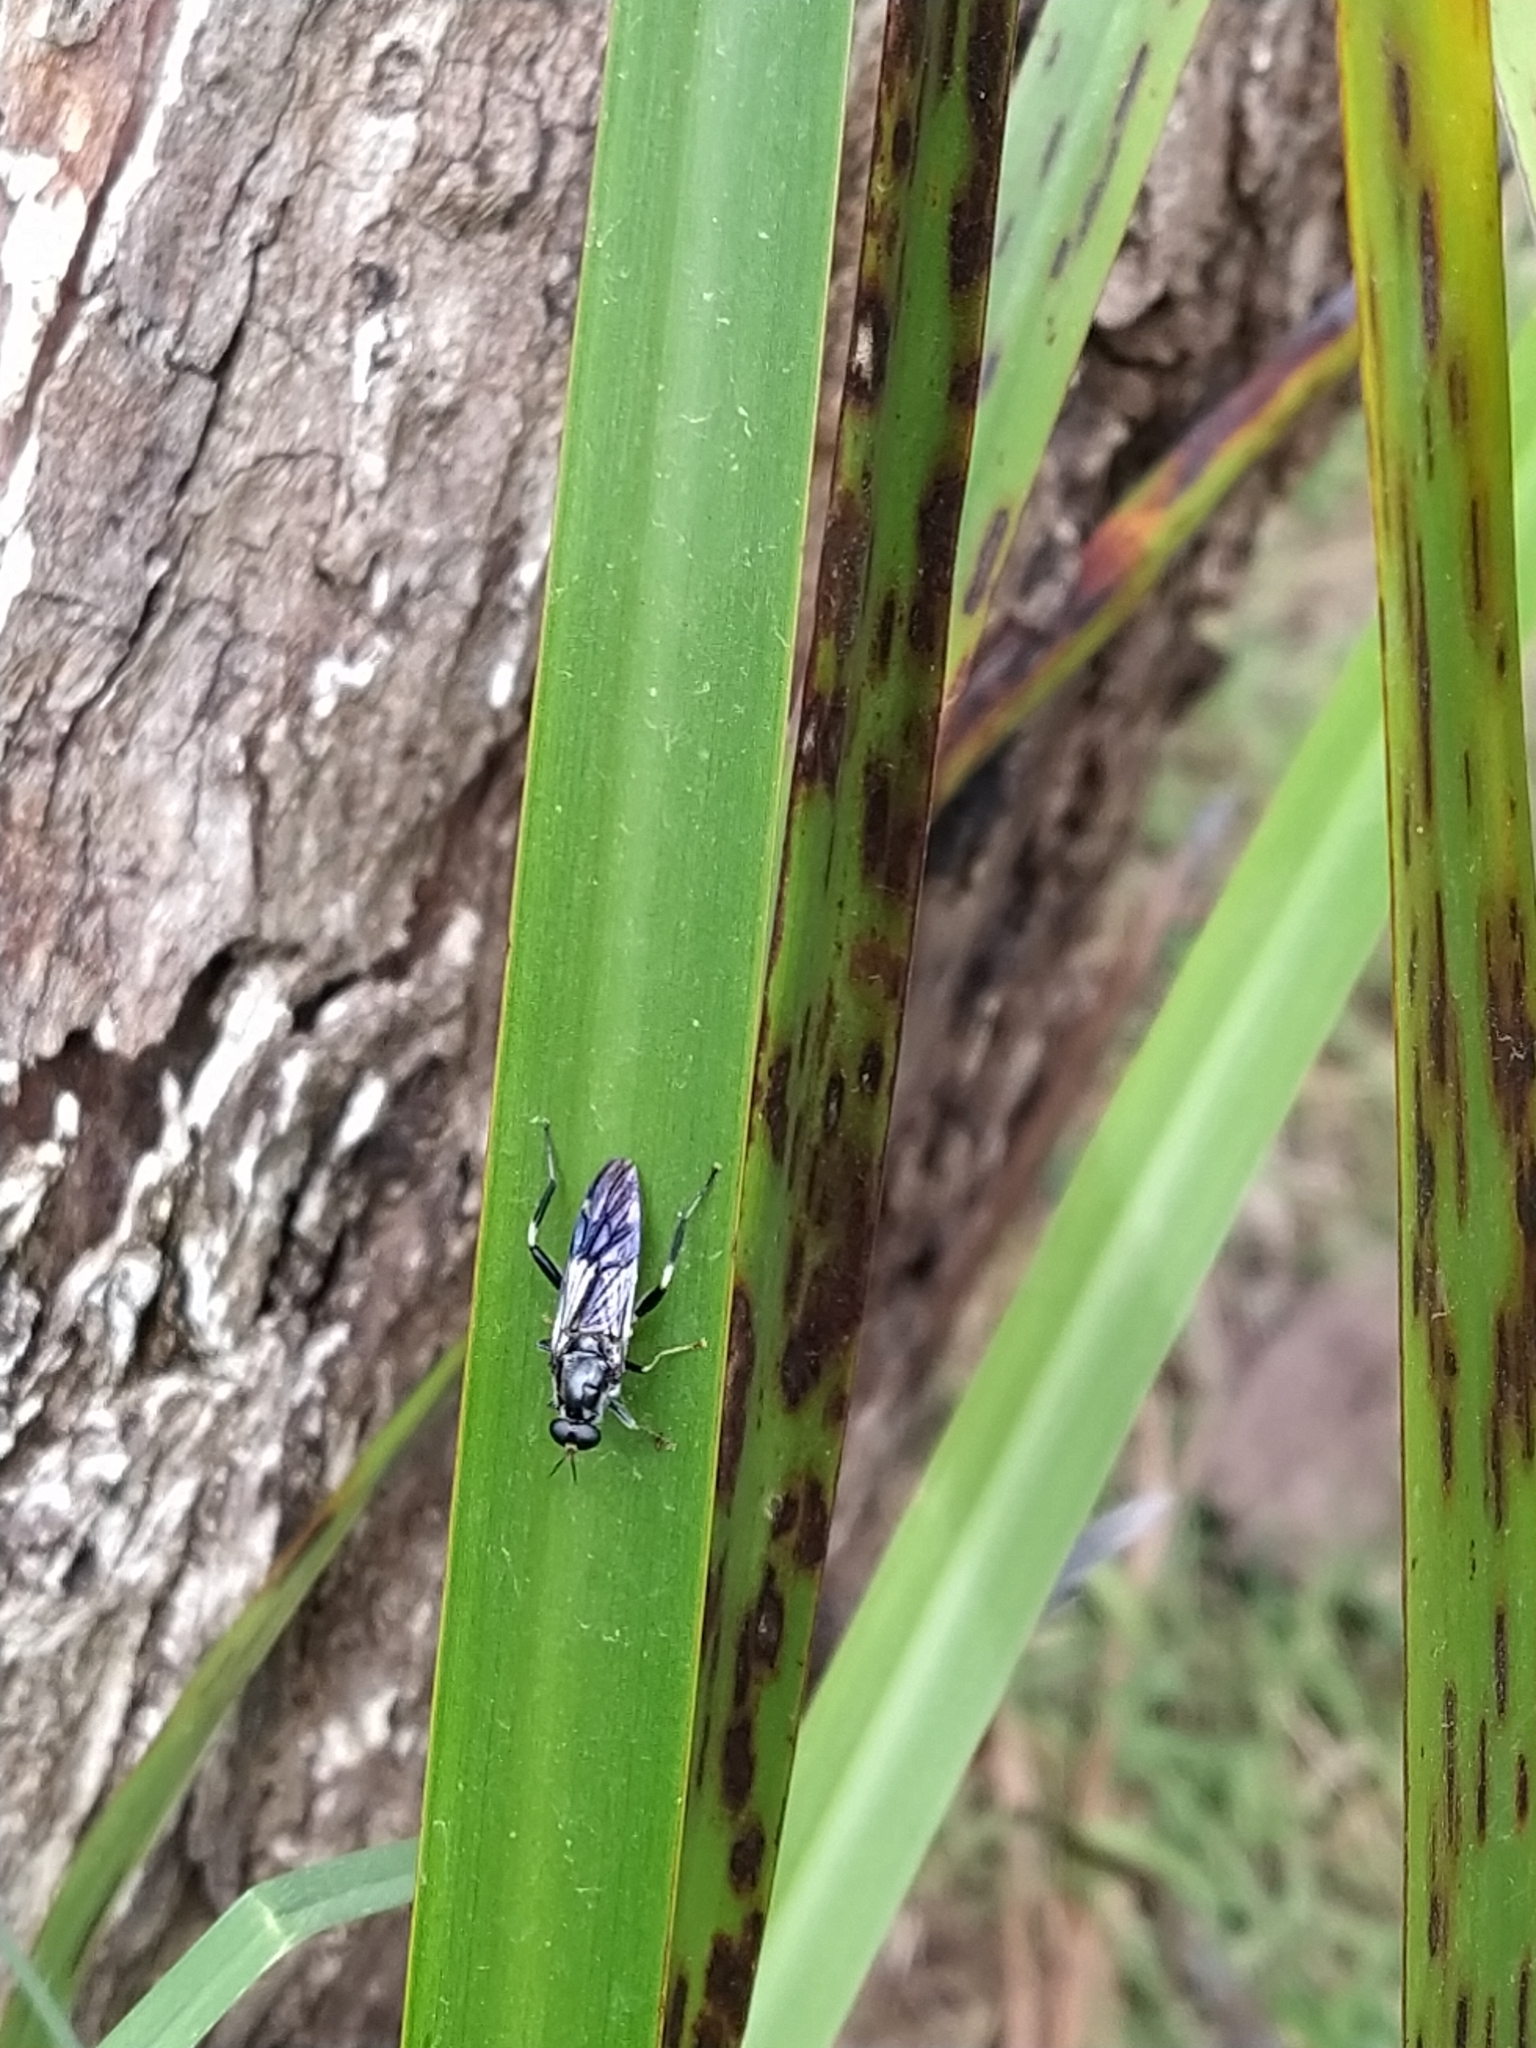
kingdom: Animalia
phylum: Arthropoda
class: Insecta
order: Diptera
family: Stratiomyidae
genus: Exaireta
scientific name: Exaireta spinigera
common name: Blue soldier fly
